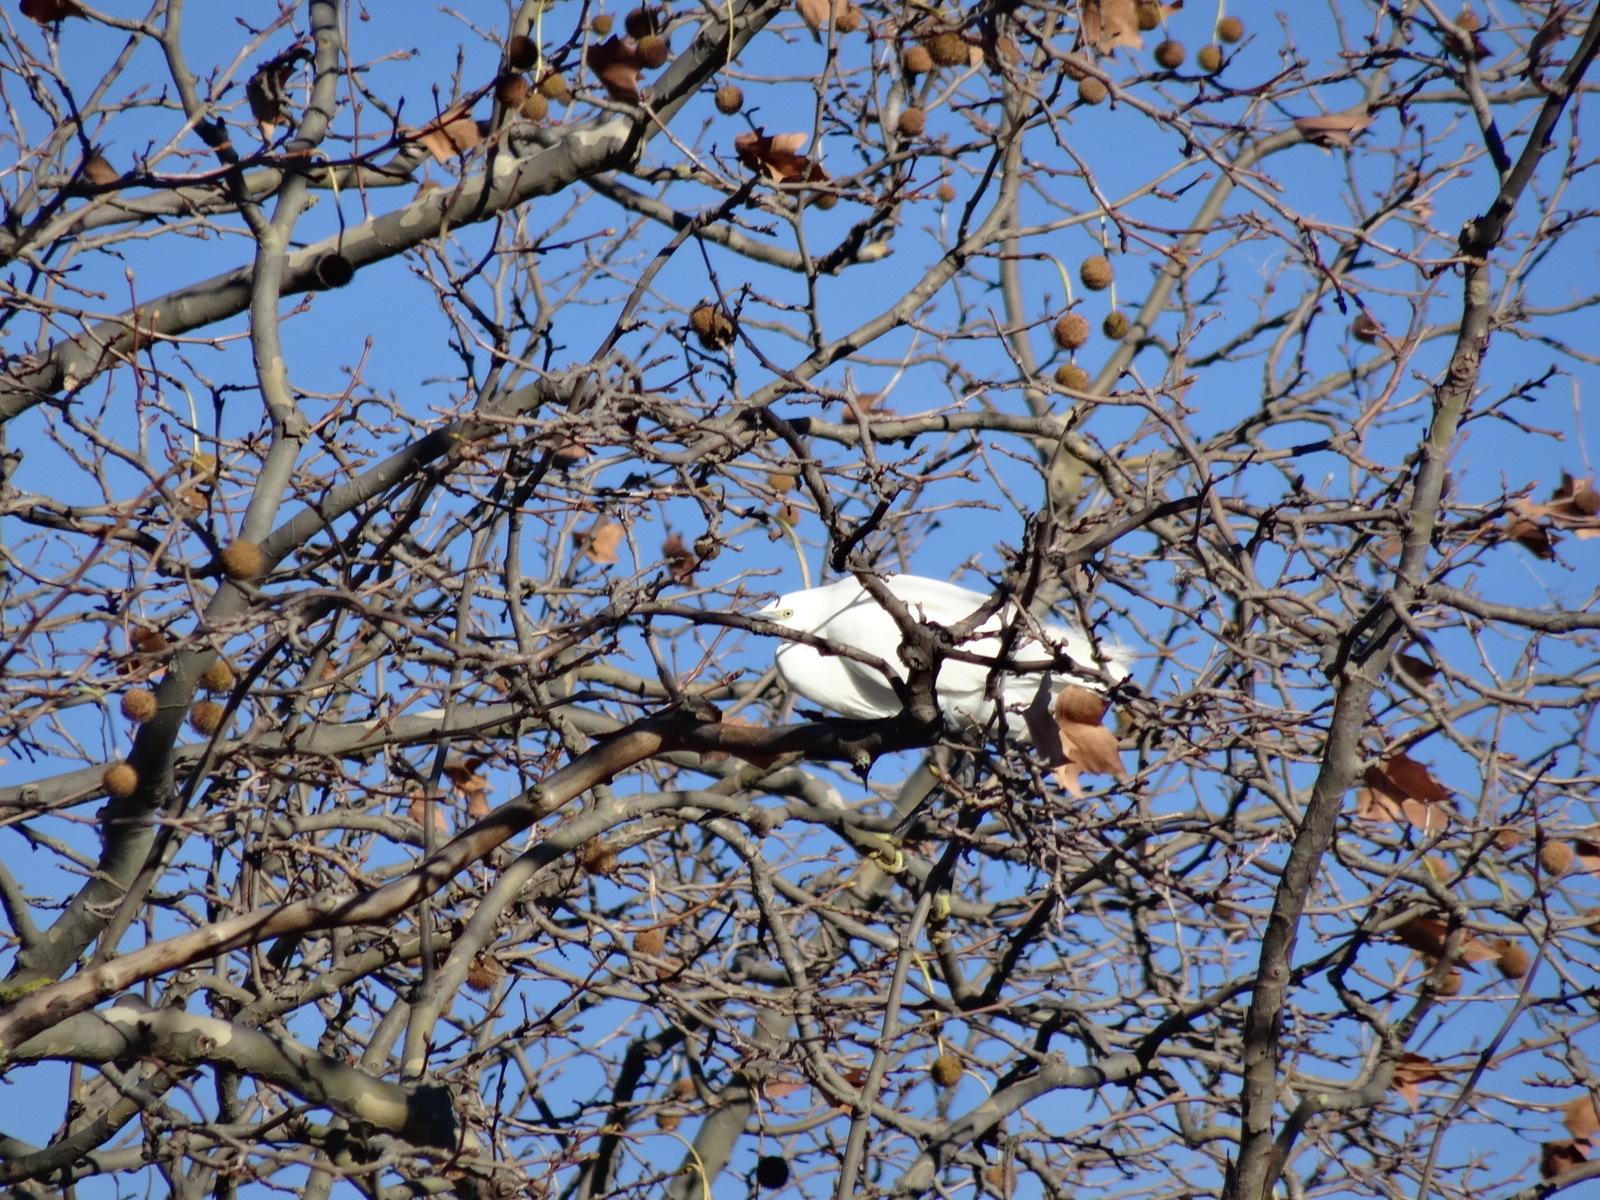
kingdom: Animalia
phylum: Chordata
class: Aves
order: Pelecaniformes
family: Ardeidae
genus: Egretta
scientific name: Egretta garzetta
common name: Little egret
